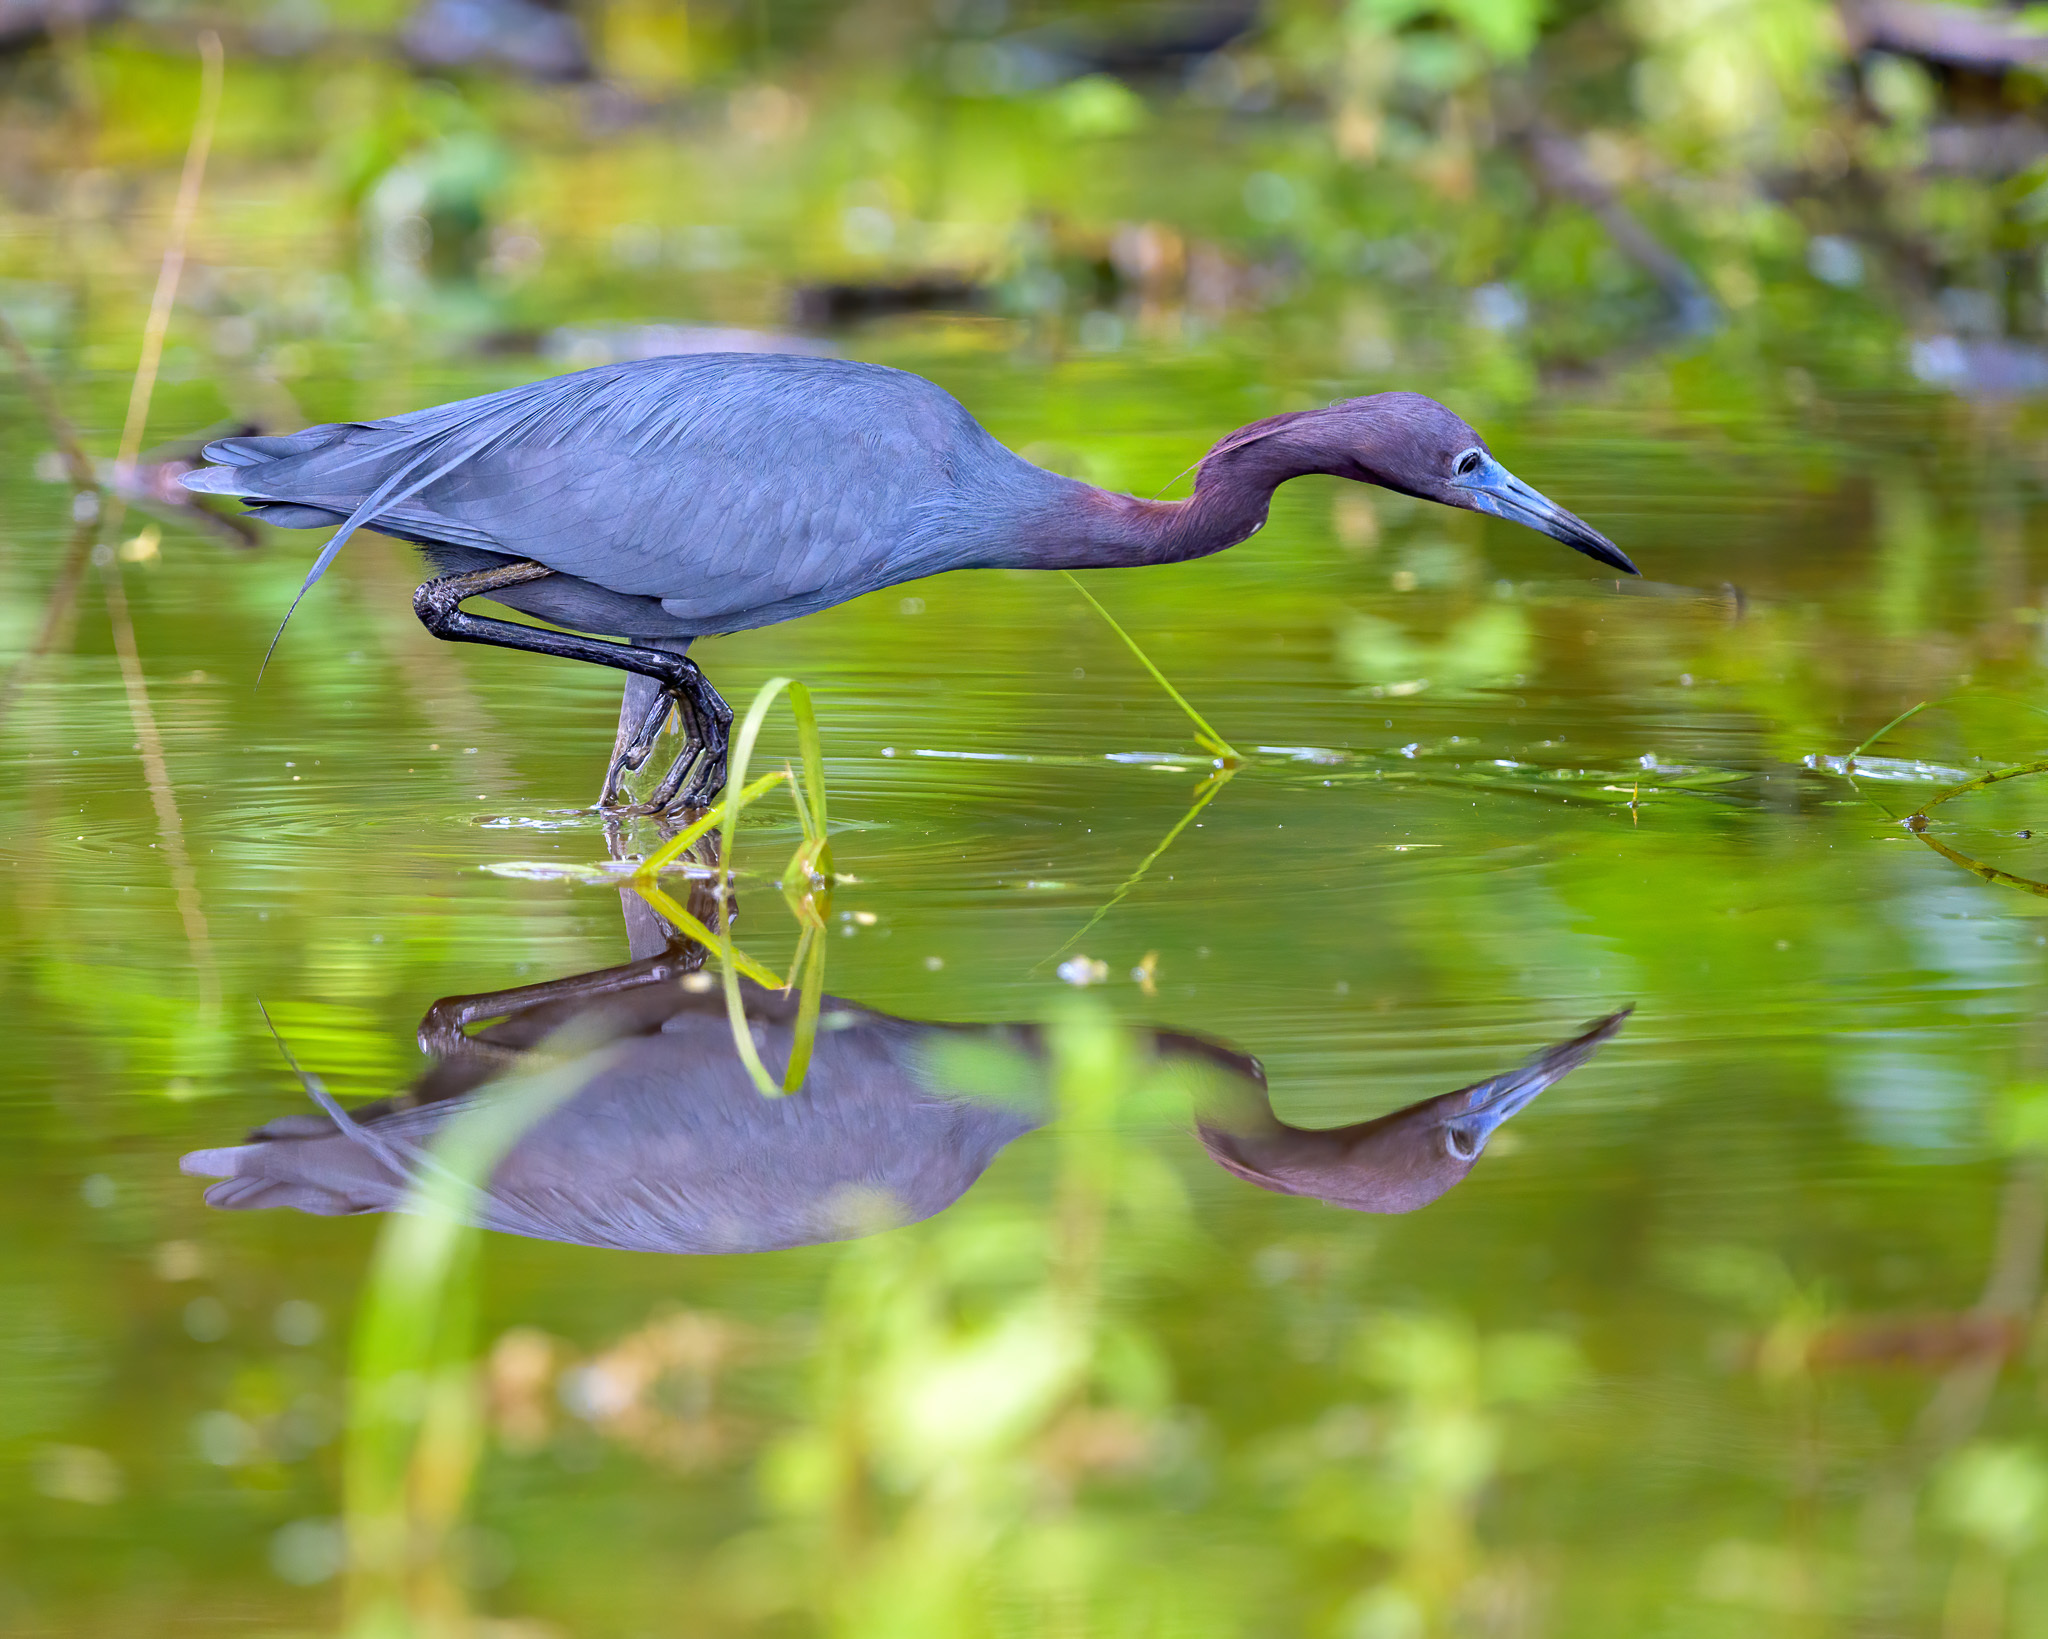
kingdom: Animalia
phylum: Chordata
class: Aves
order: Pelecaniformes
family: Ardeidae
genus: Egretta
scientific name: Egretta caerulea
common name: Little blue heron
